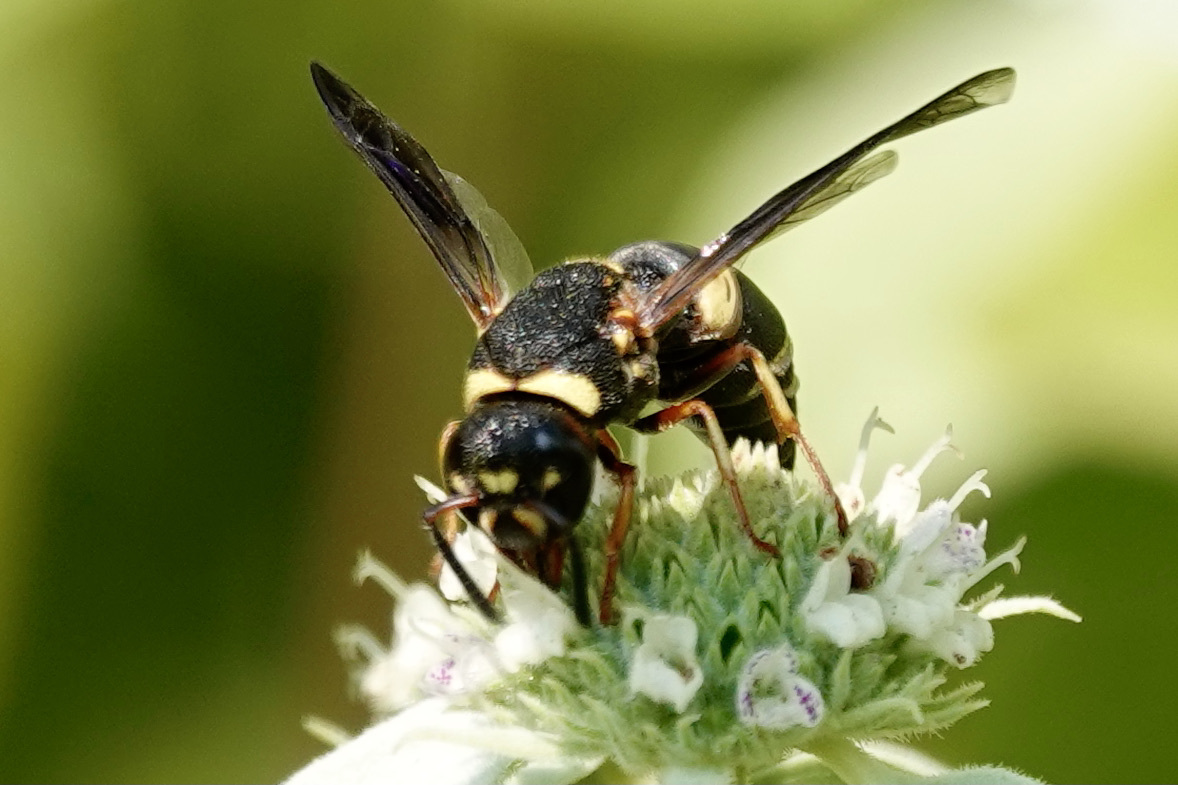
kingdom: Animalia
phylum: Arthropoda
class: Insecta
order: Hymenoptera
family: Eumenidae
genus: Euodynerus
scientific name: Euodynerus hidalgo
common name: Wasp
